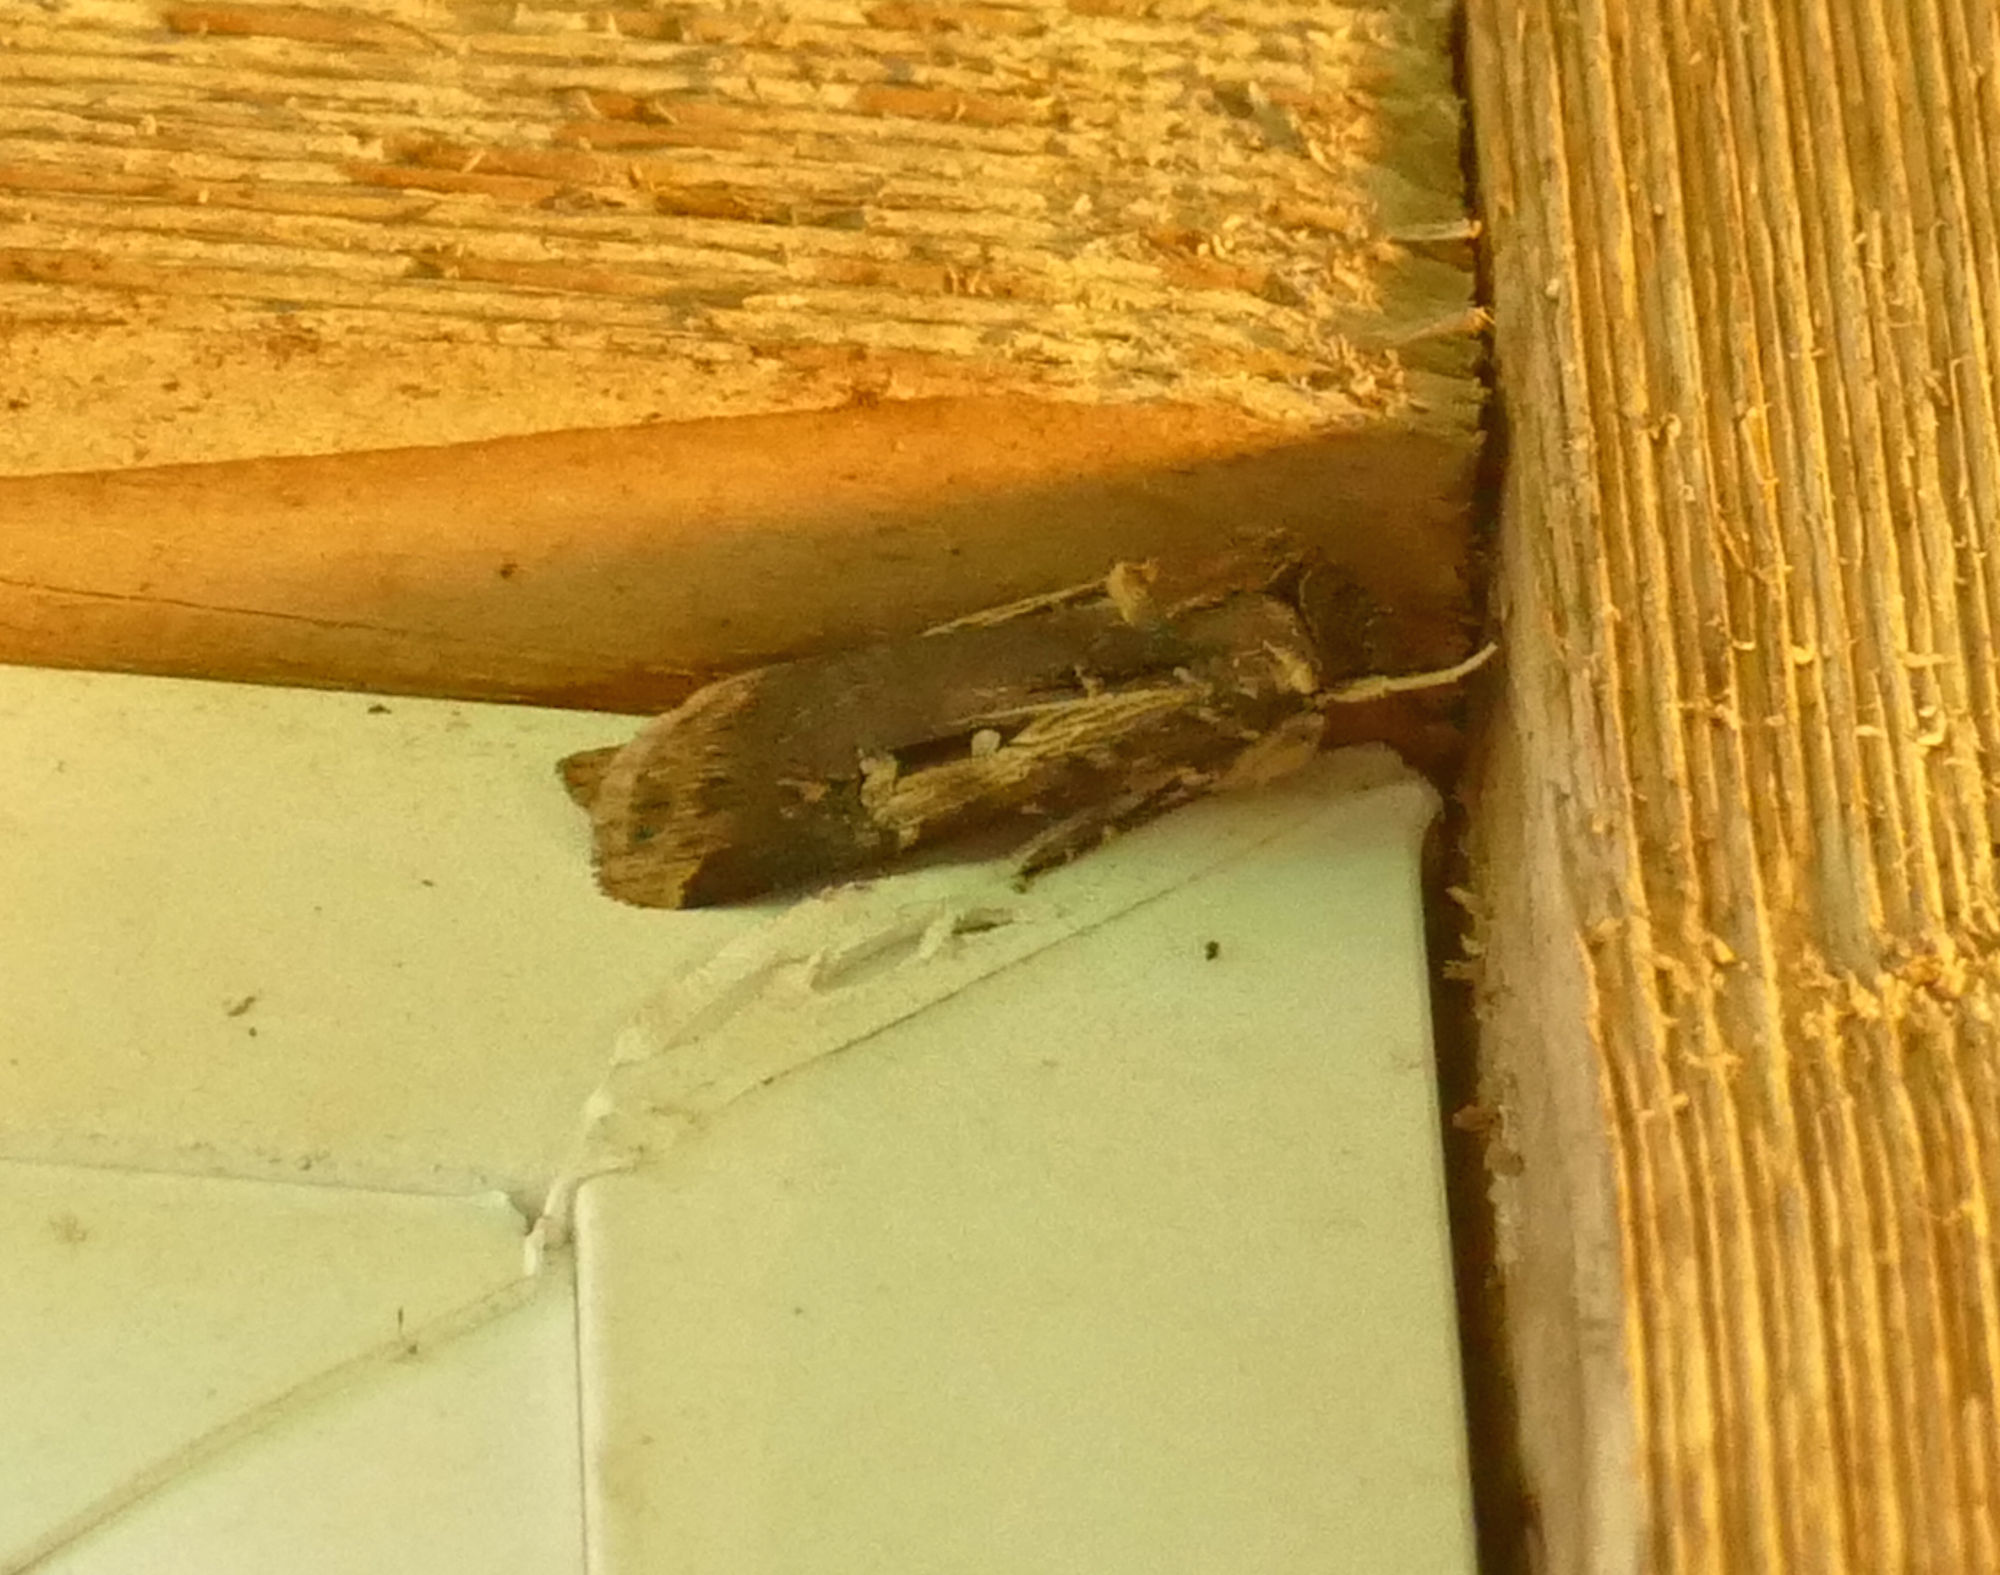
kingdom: Animalia
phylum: Arthropoda
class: Insecta
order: Lepidoptera
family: Noctuidae
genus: Feltia
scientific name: Feltia subterranea
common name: Granulate cutworm
